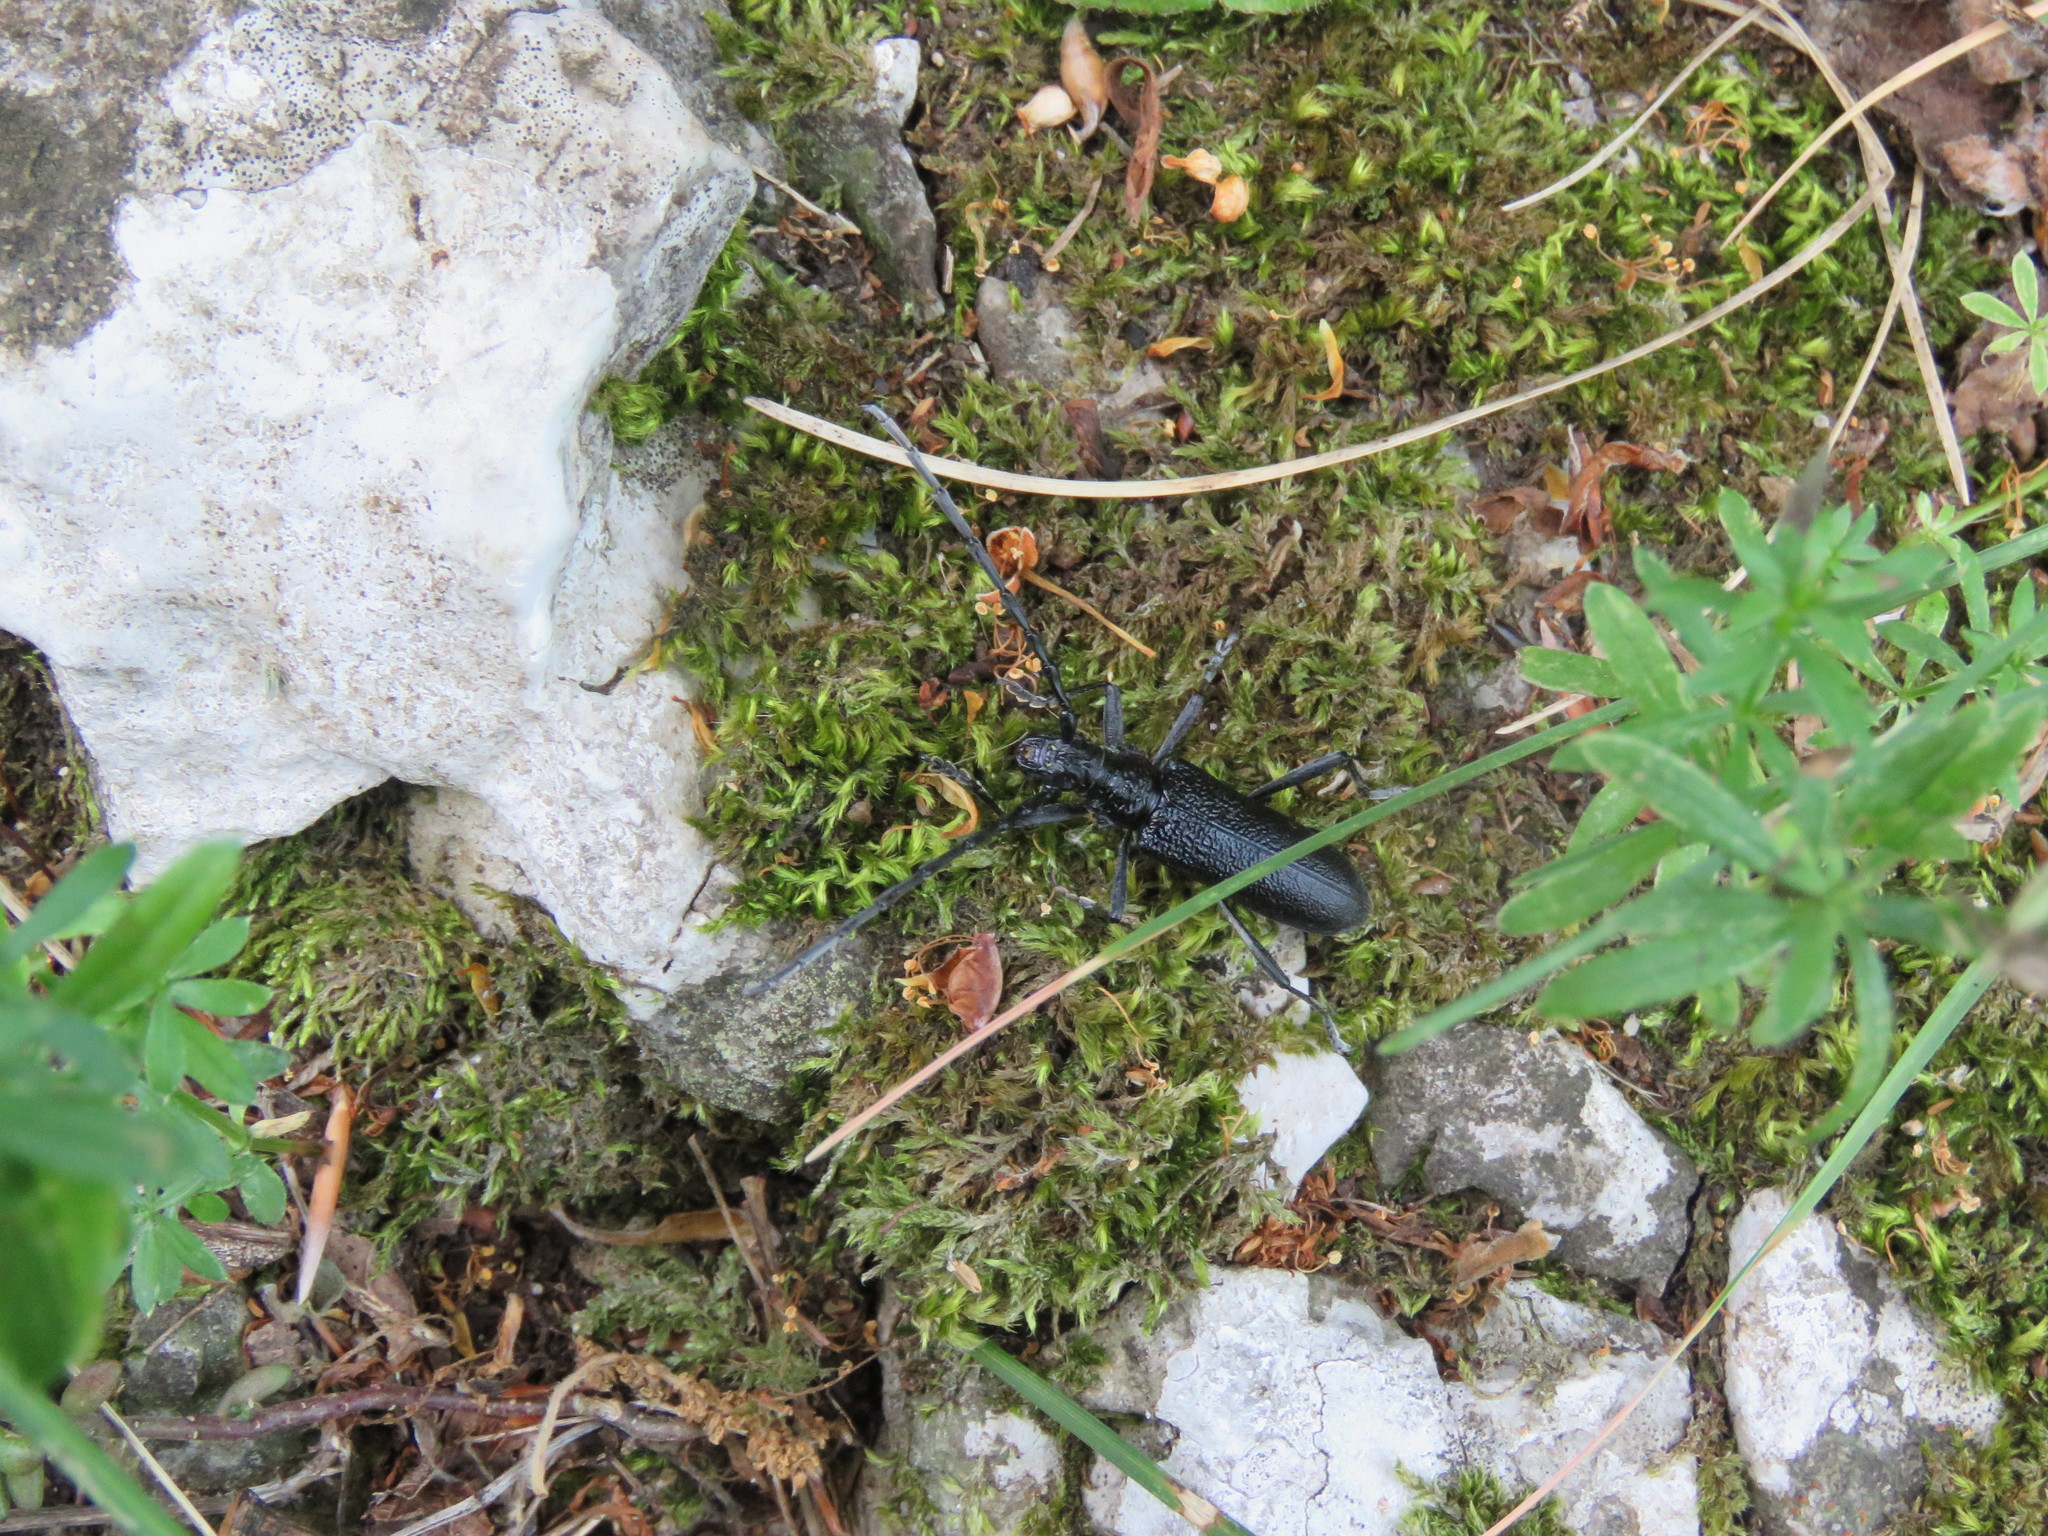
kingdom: Animalia
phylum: Arthropoda
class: Insecta
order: Coleoptera
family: Cerambycidae
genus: Cerambyx
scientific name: Cerambyx scopolii
